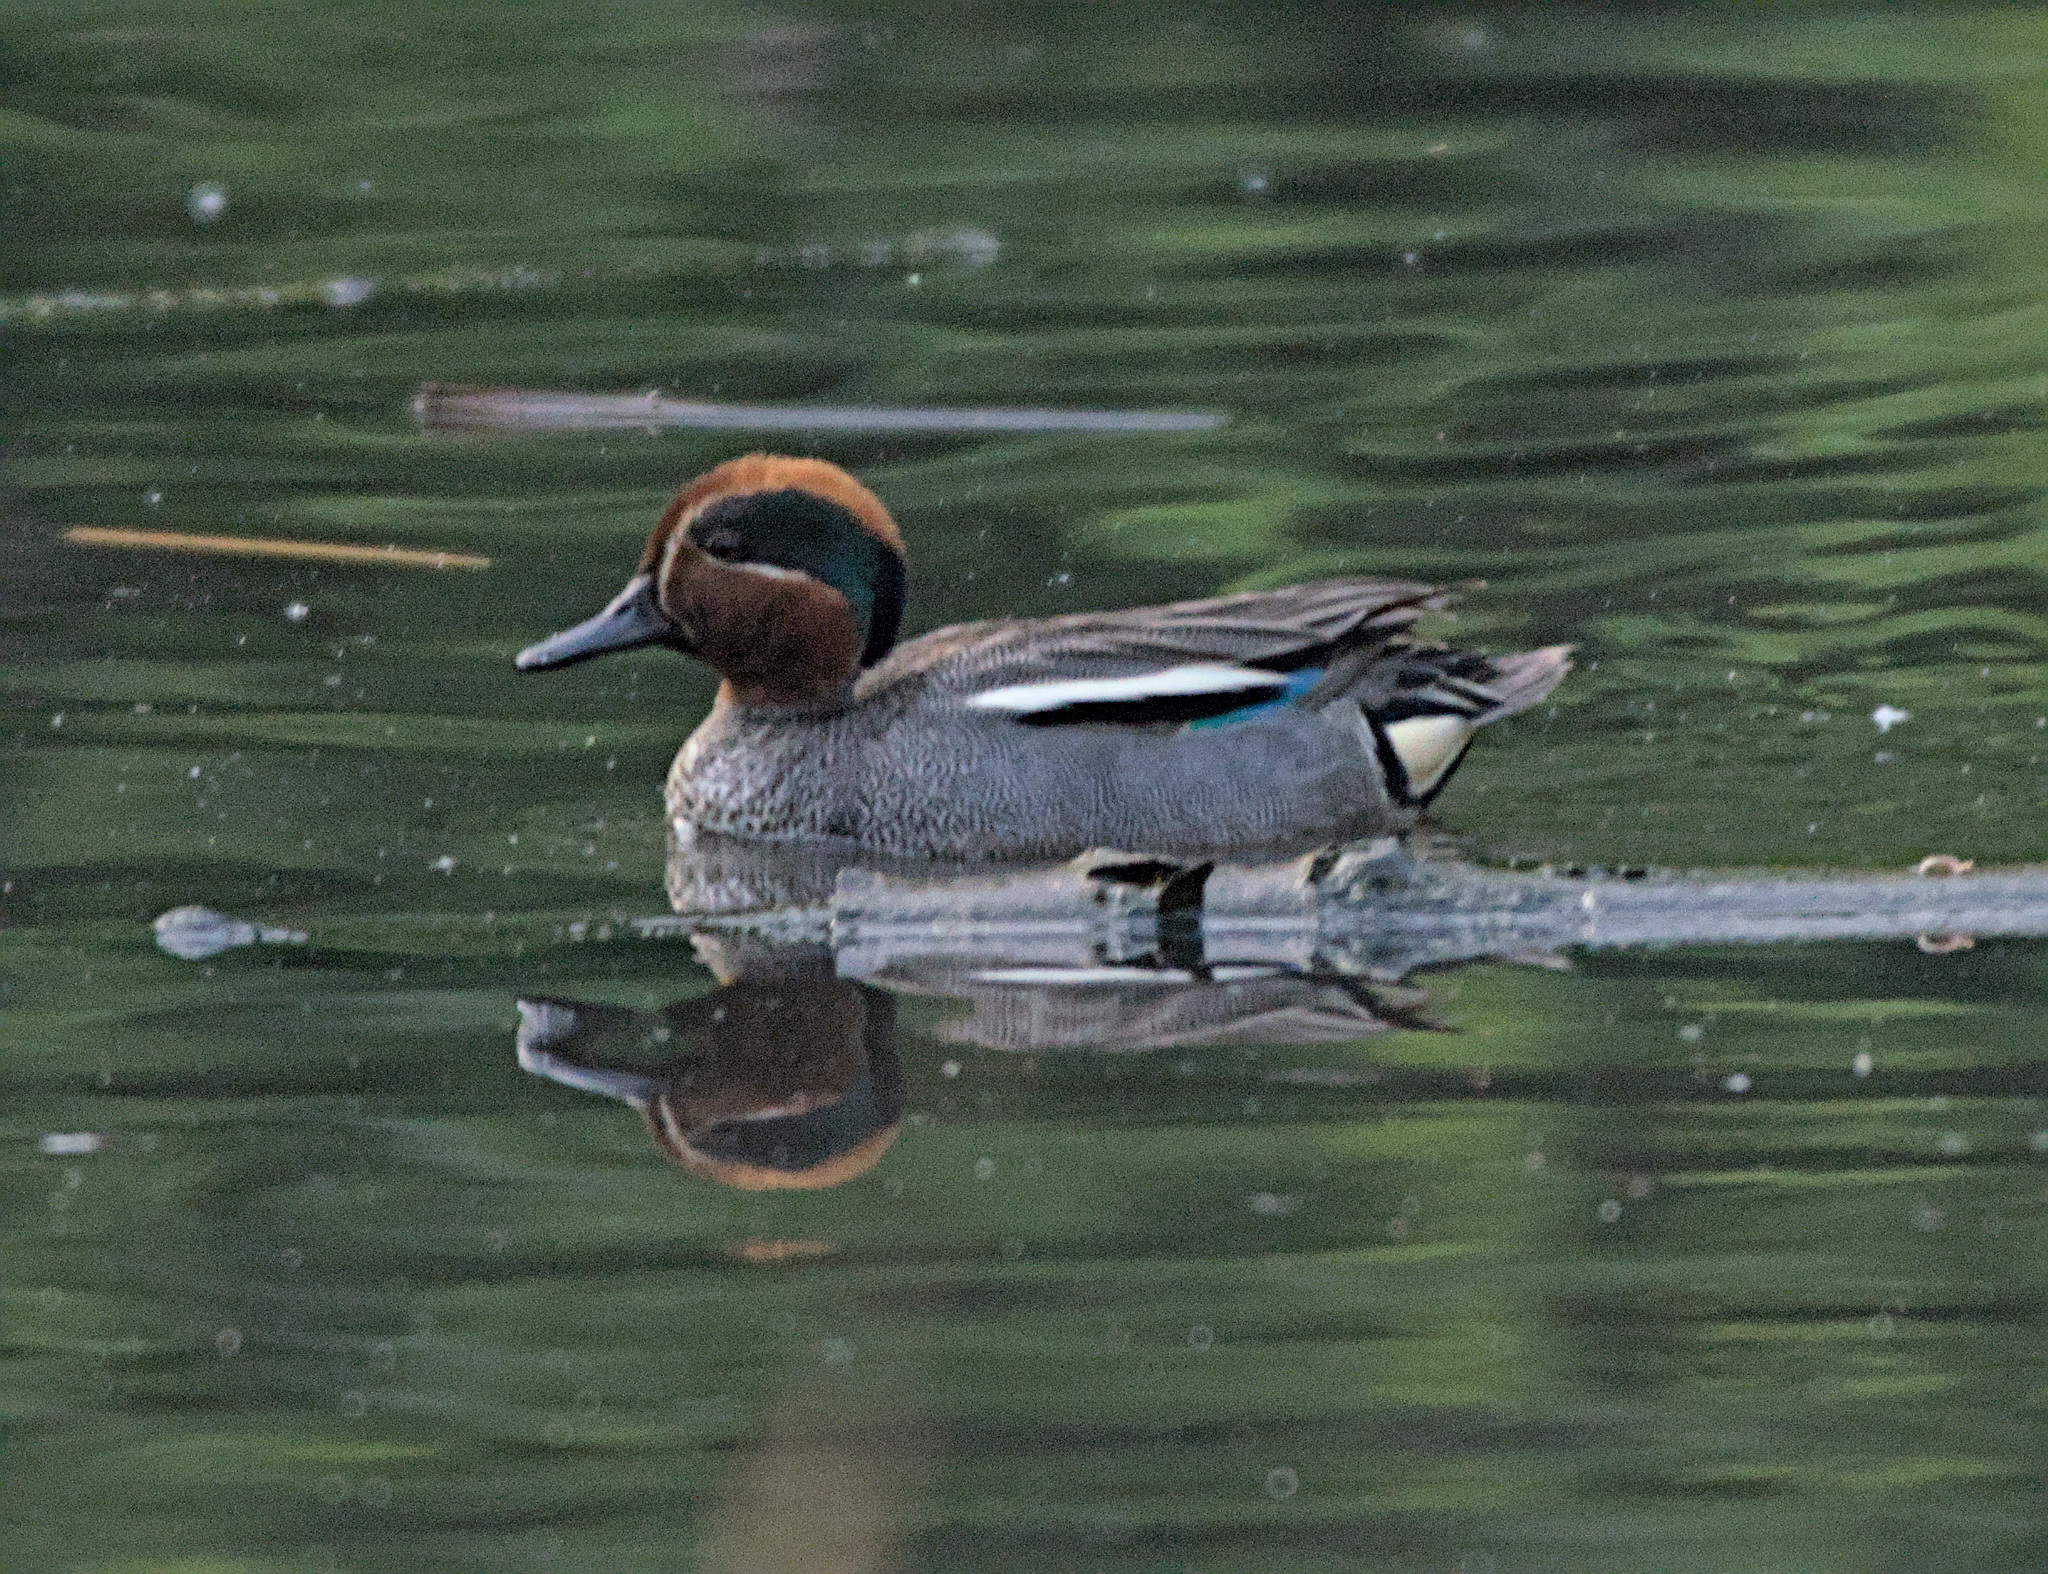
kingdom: Animalia
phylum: Chordata
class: Aves
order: Anseriformes
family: Anatidae
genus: Anas
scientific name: Anas crecca
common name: Eurasian teal
